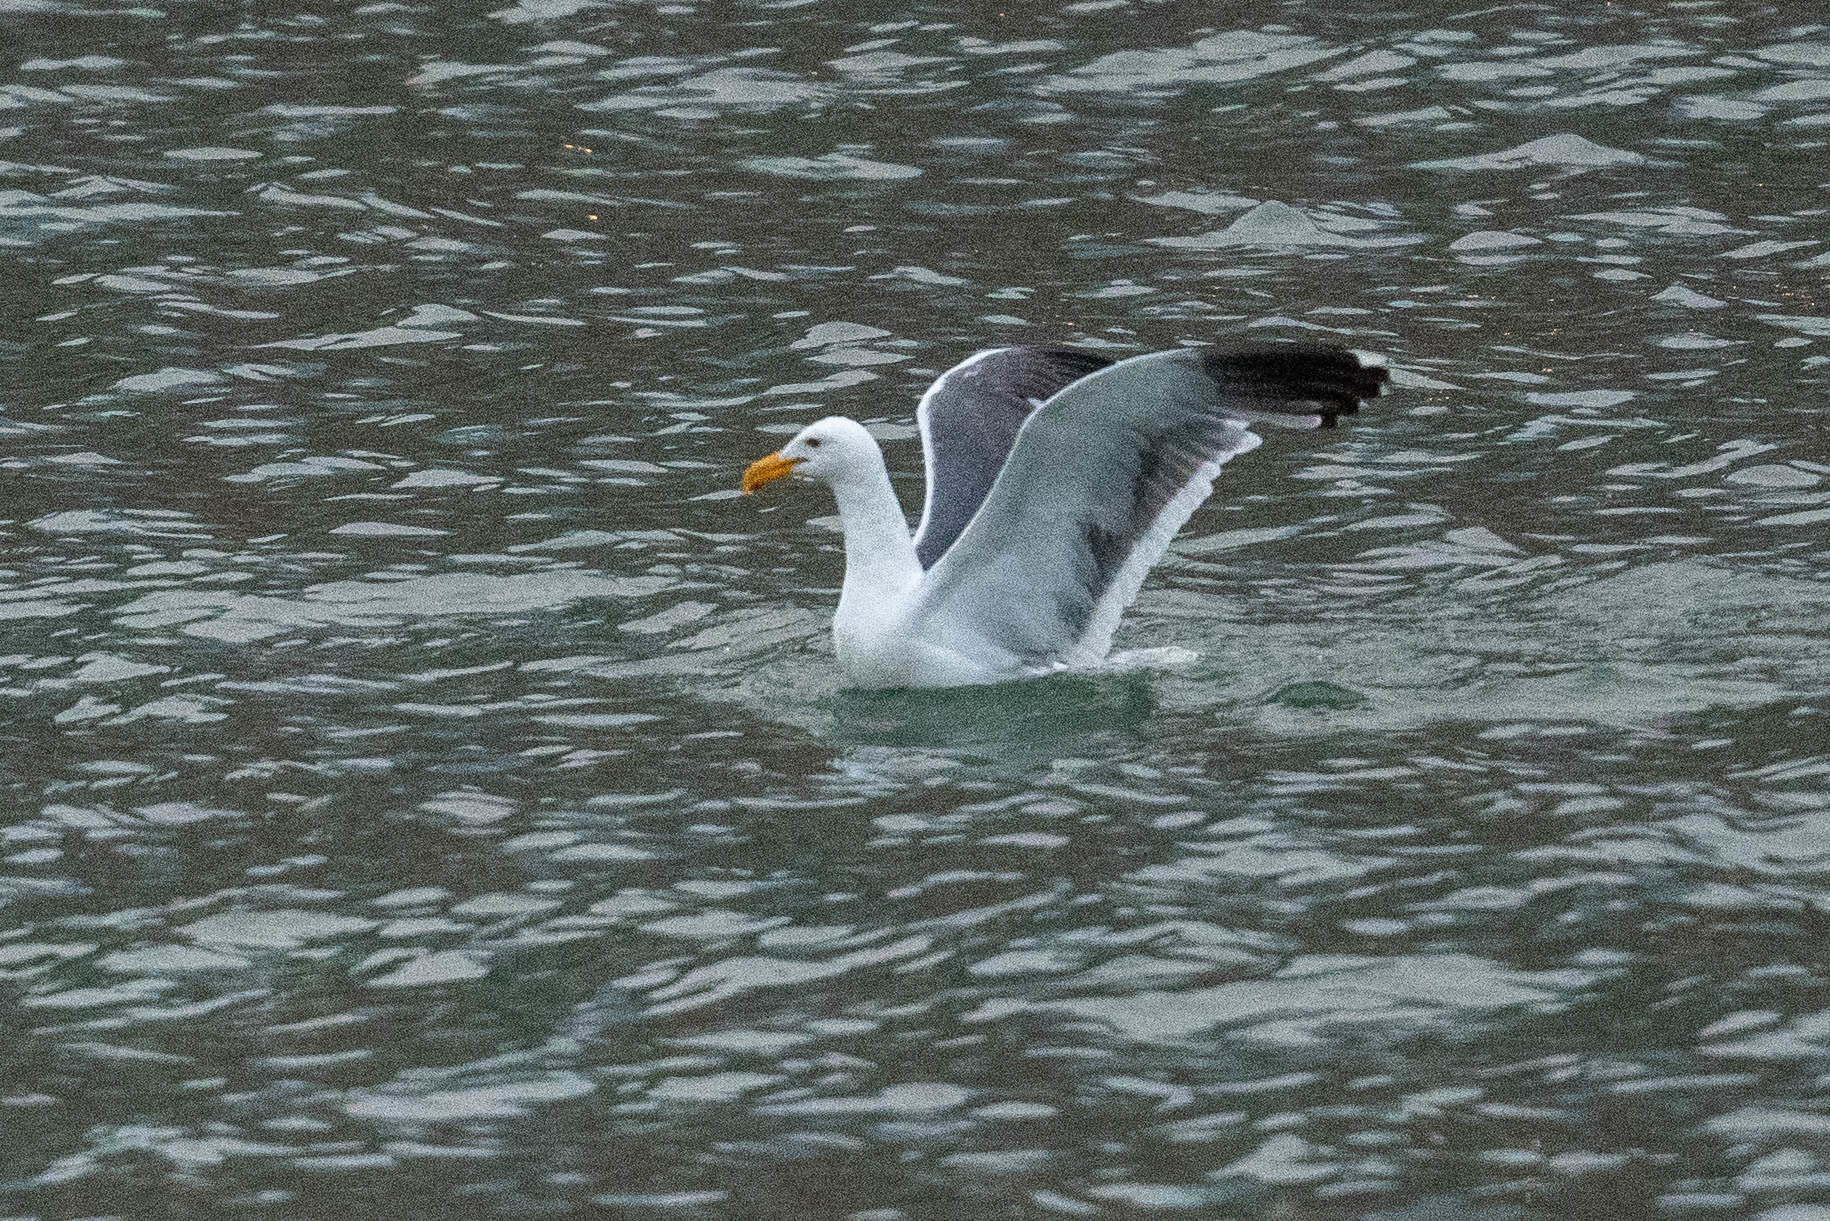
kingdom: Animalia
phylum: Chordata
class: Aves
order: Charadriiformes
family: Laridae
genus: Larus
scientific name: Larus occidentalis
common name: Western gull
